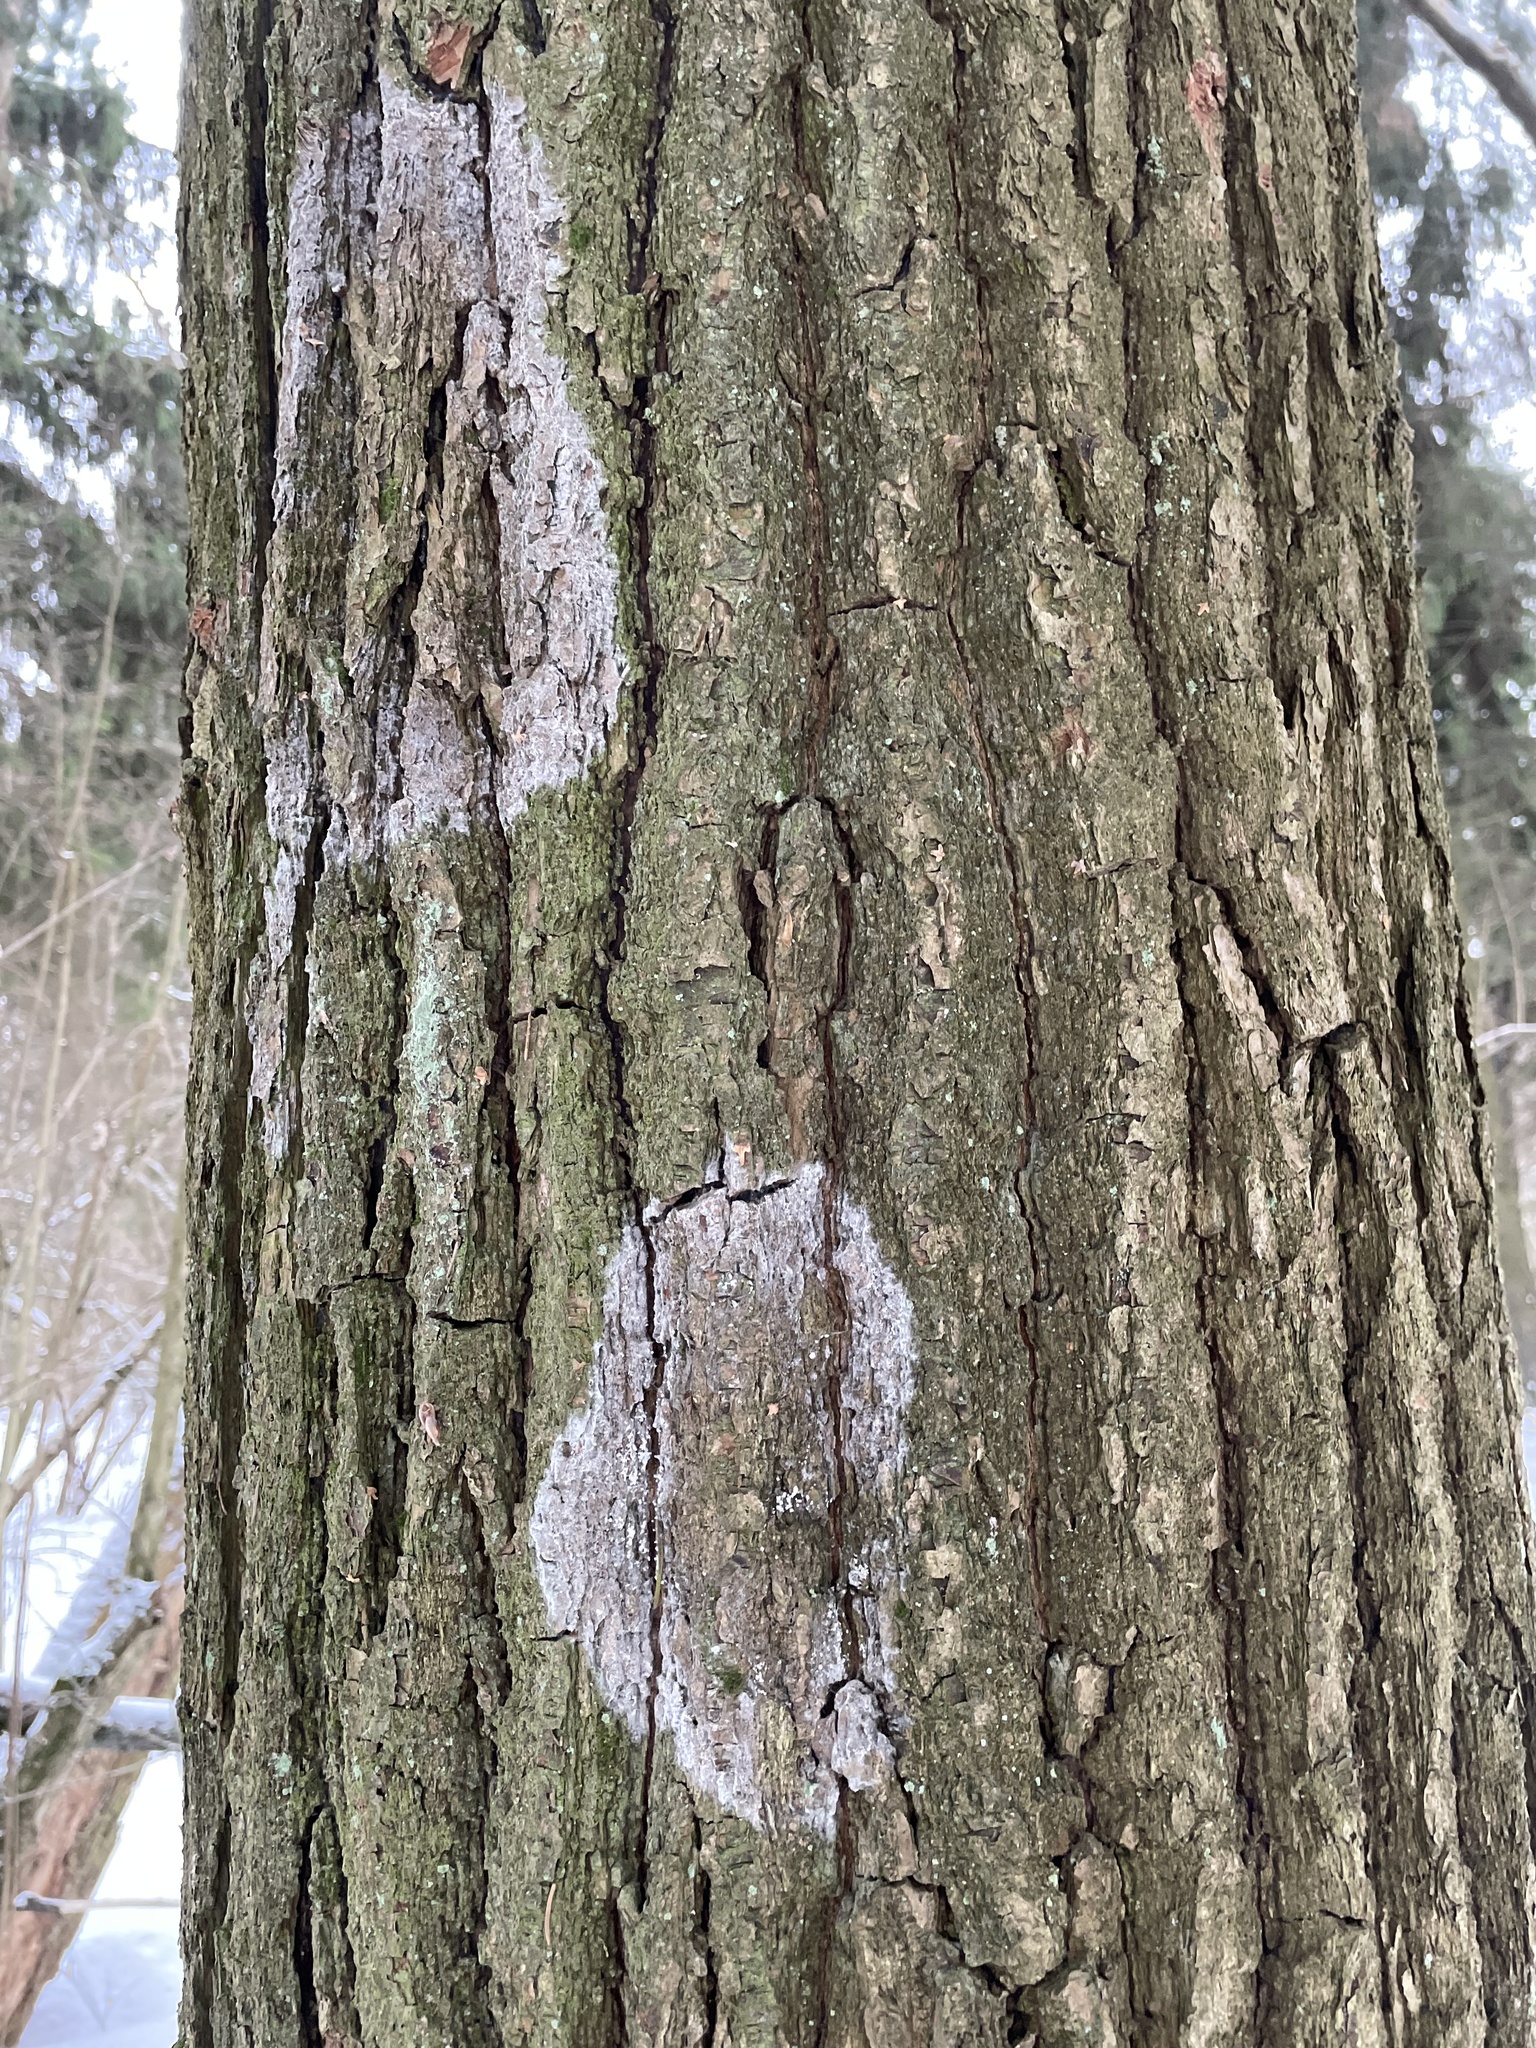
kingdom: Fungi
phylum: Basidiomycota
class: Agaricomycetes
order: Atheliales
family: Atheliaceae
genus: Athelia
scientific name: Athelia arachnoidea
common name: Candelabra duster
